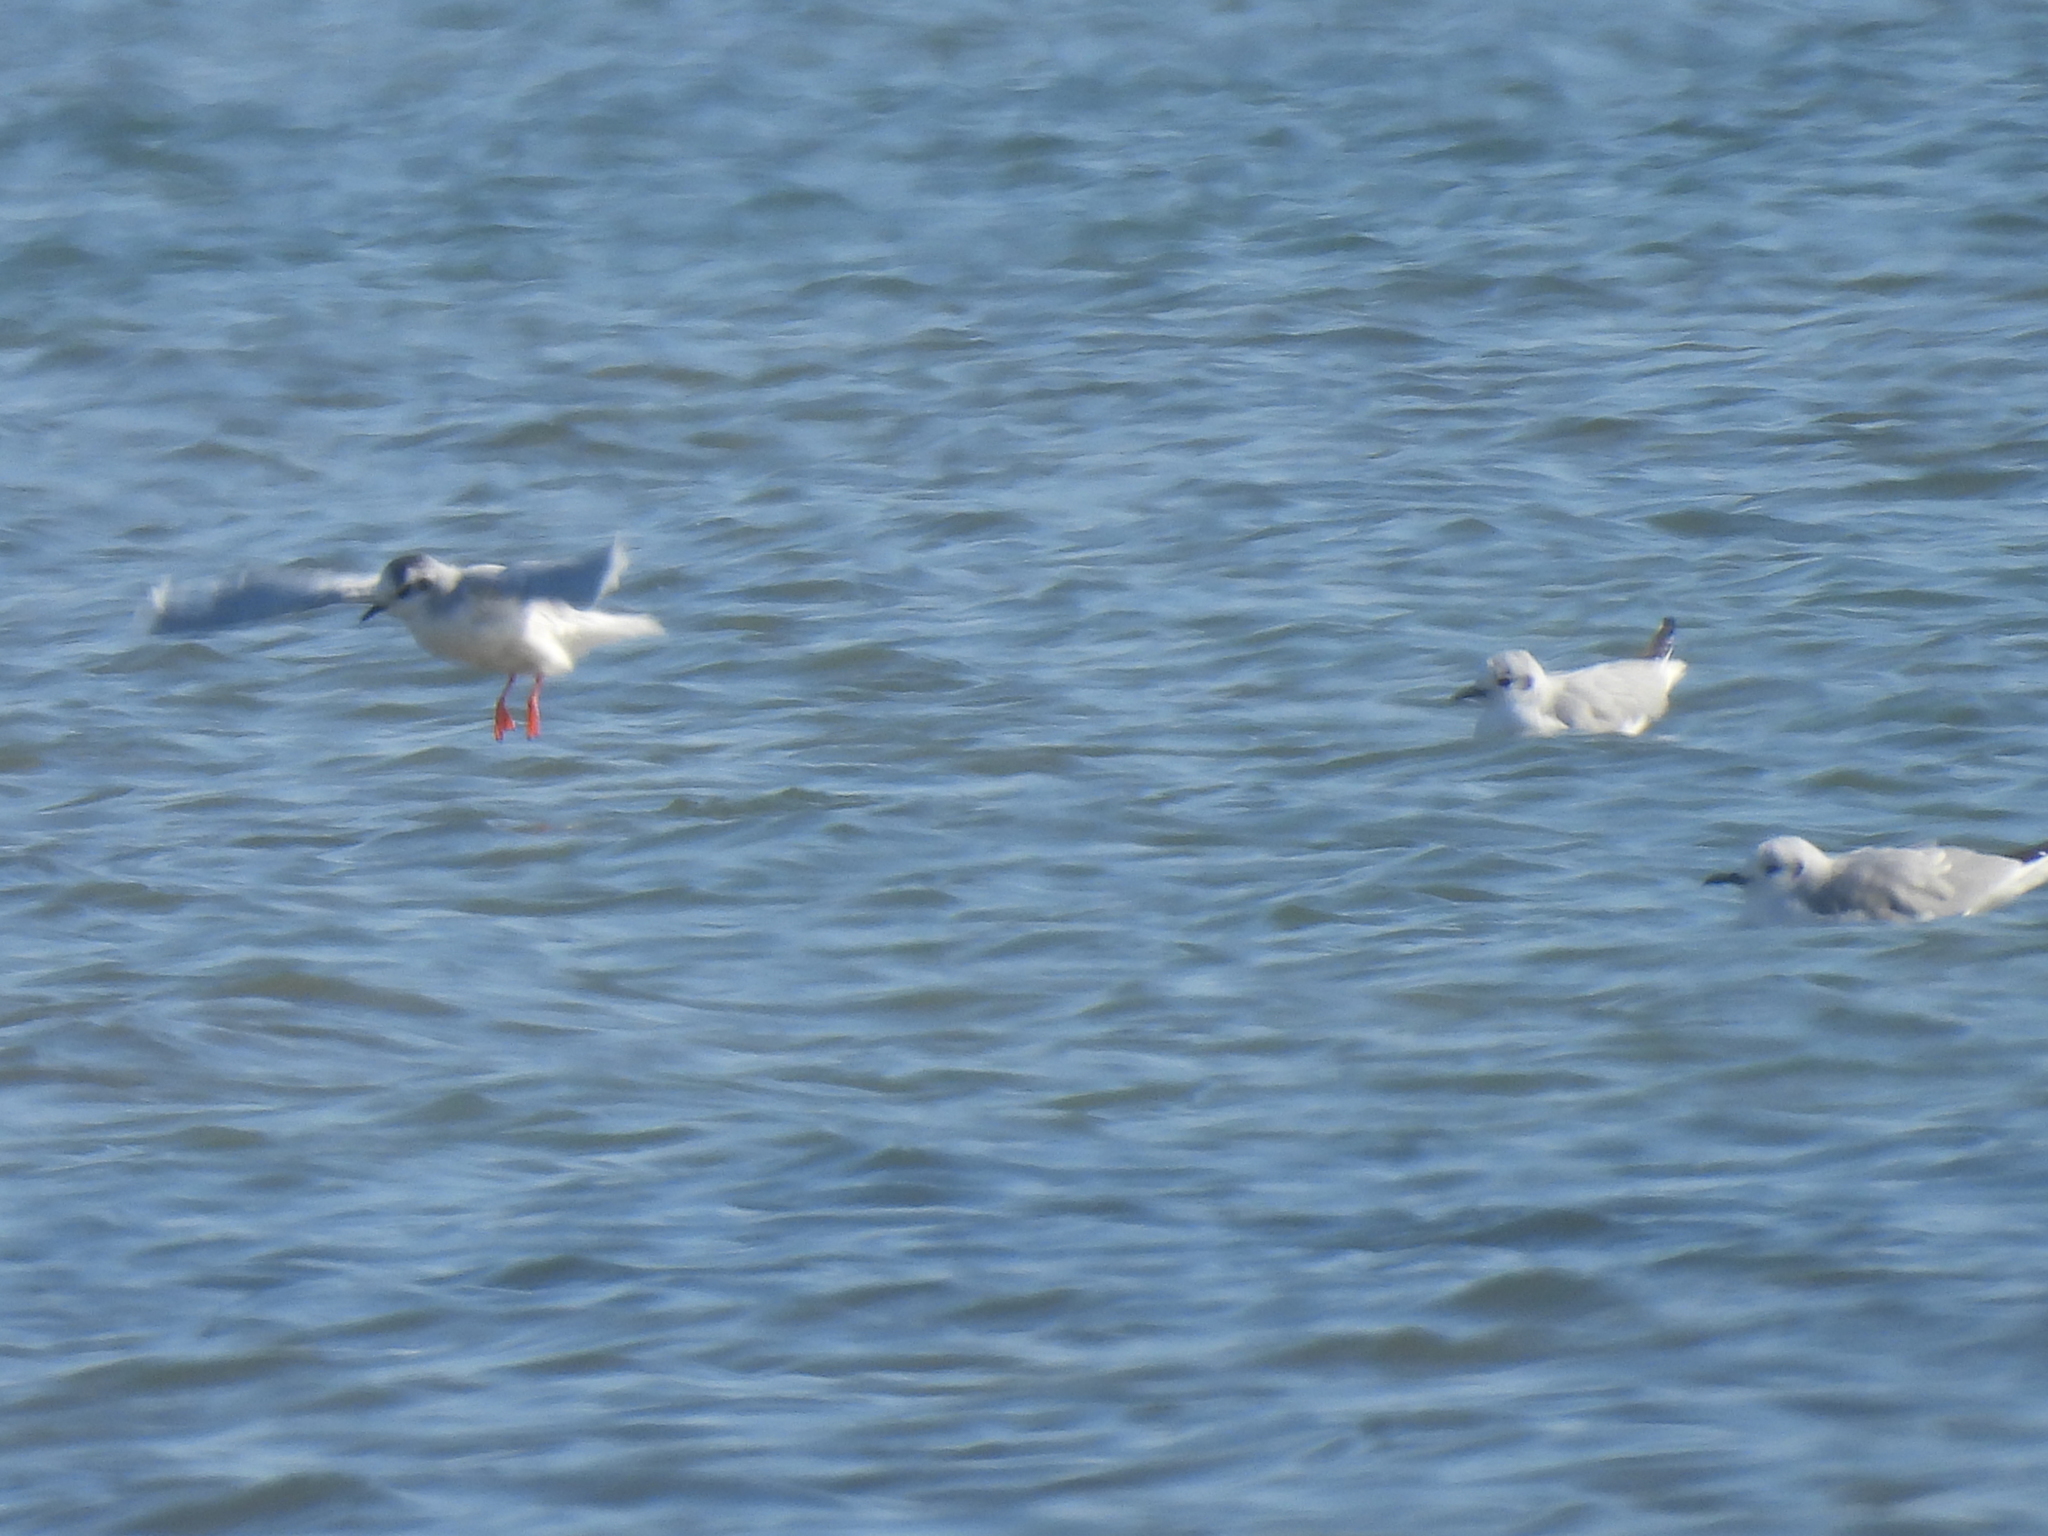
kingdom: Animalia
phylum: Chordata
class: Aves
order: Charadriiformes
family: Laridae
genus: Hydrocoloeus
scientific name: Hydrocoloeus minutus
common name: Little gull
